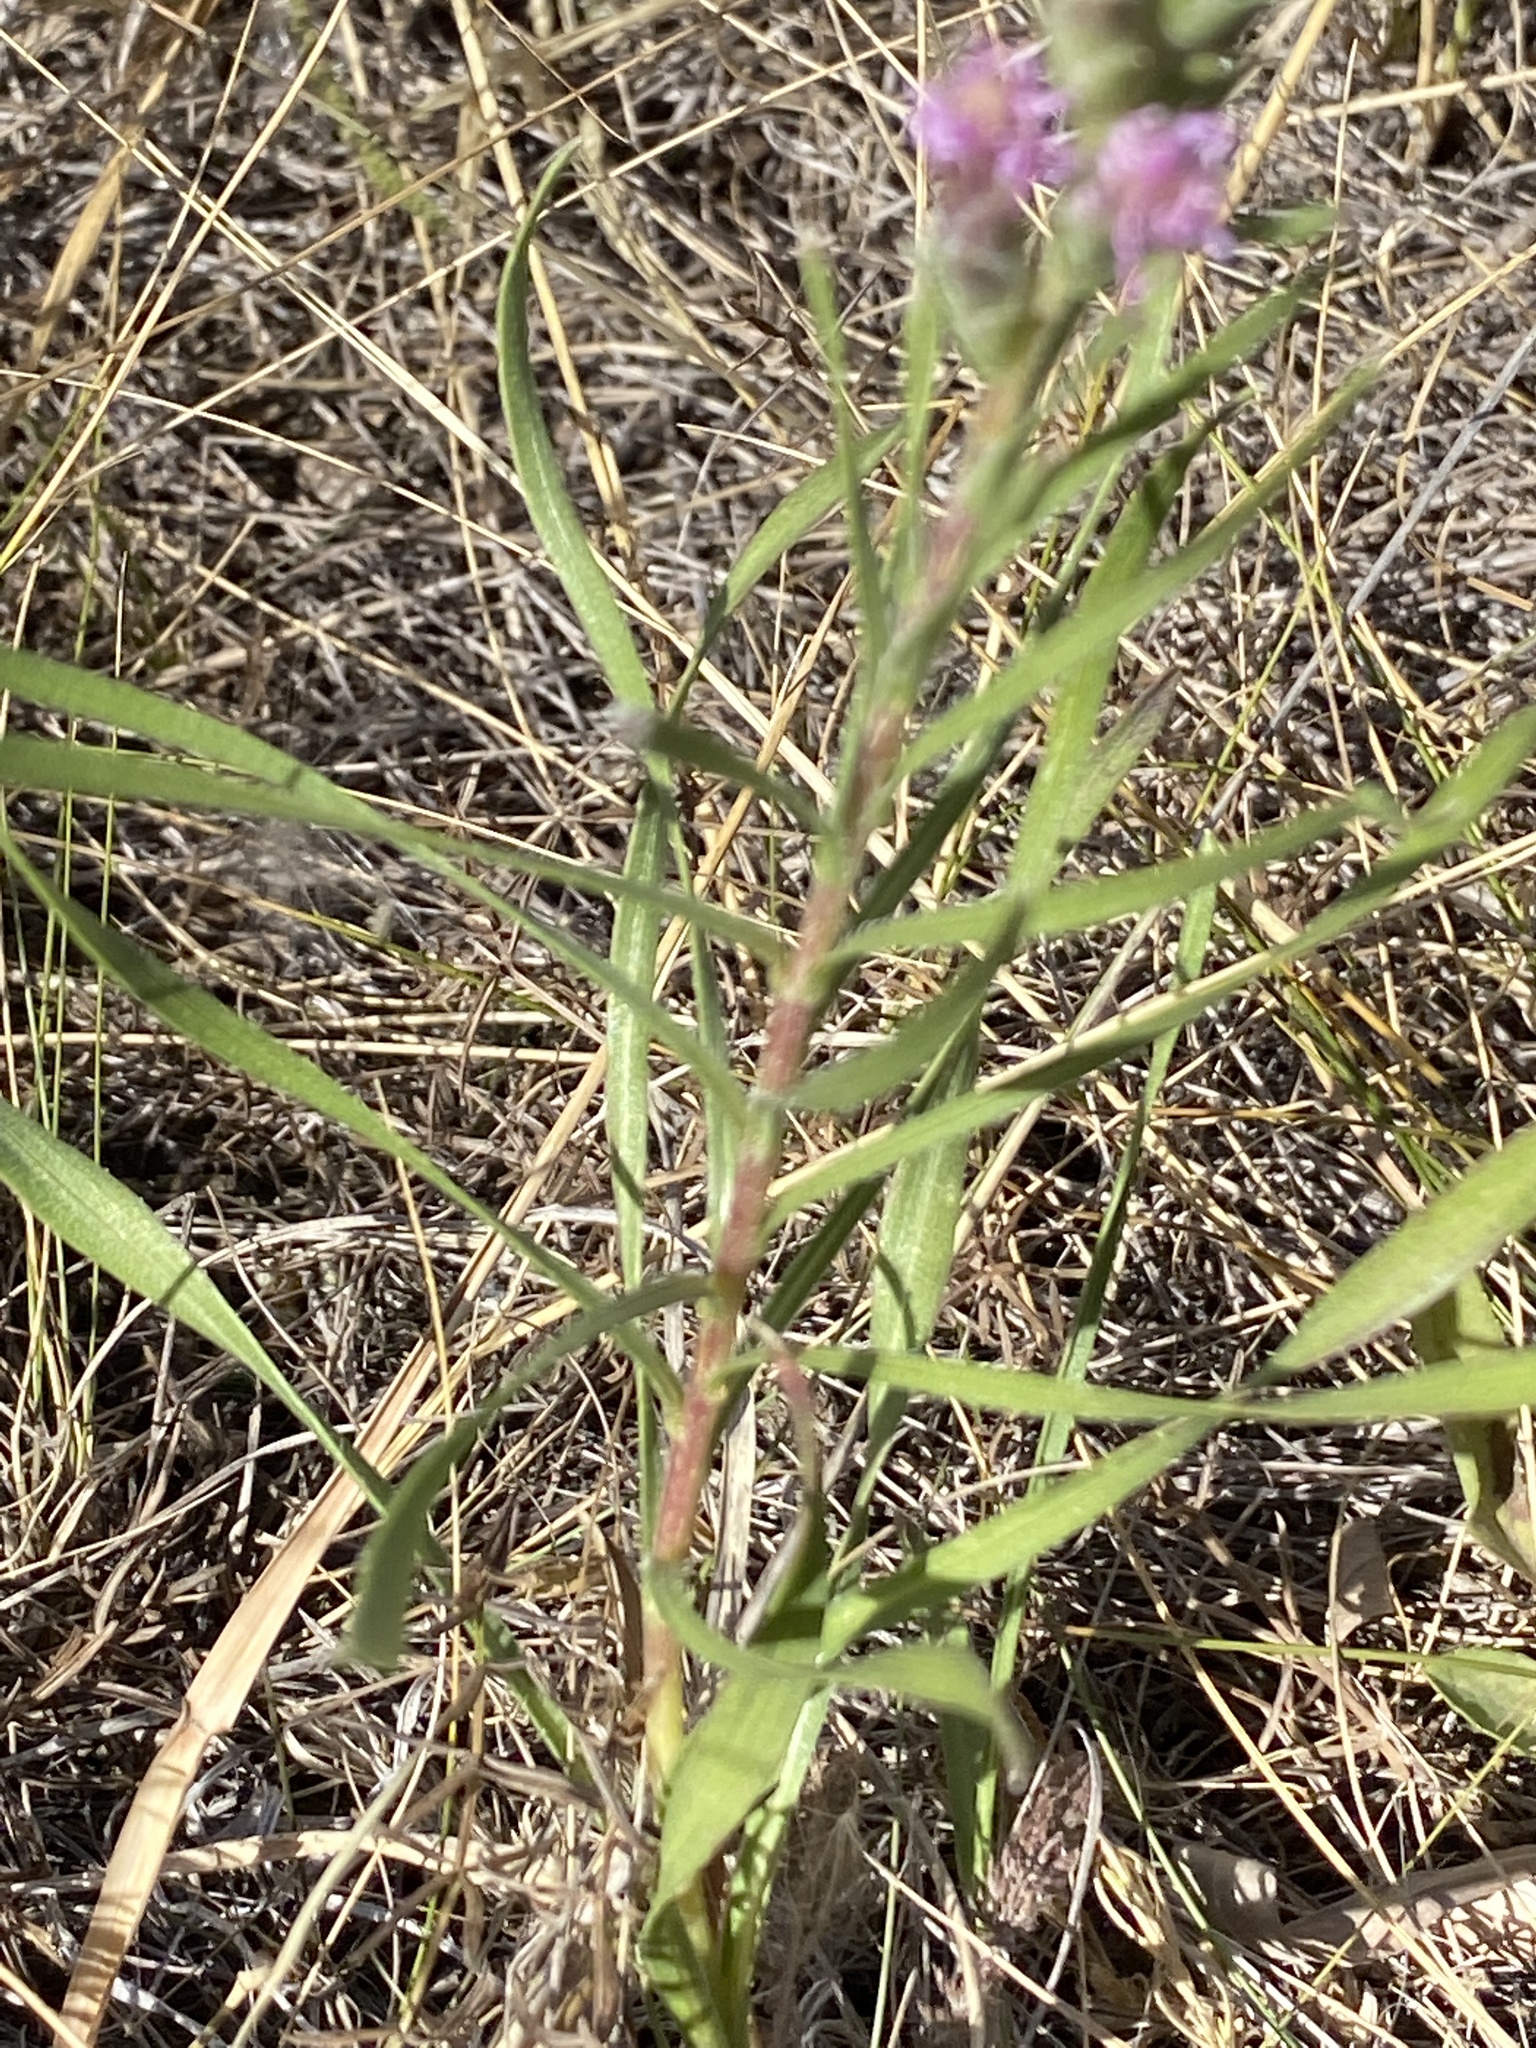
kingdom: Plantae
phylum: Tracheophyta
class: Magnoliopsida
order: Asterales
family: Asteraceae
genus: Liatris
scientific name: Liatris punctata
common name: Dotted gayfeather
